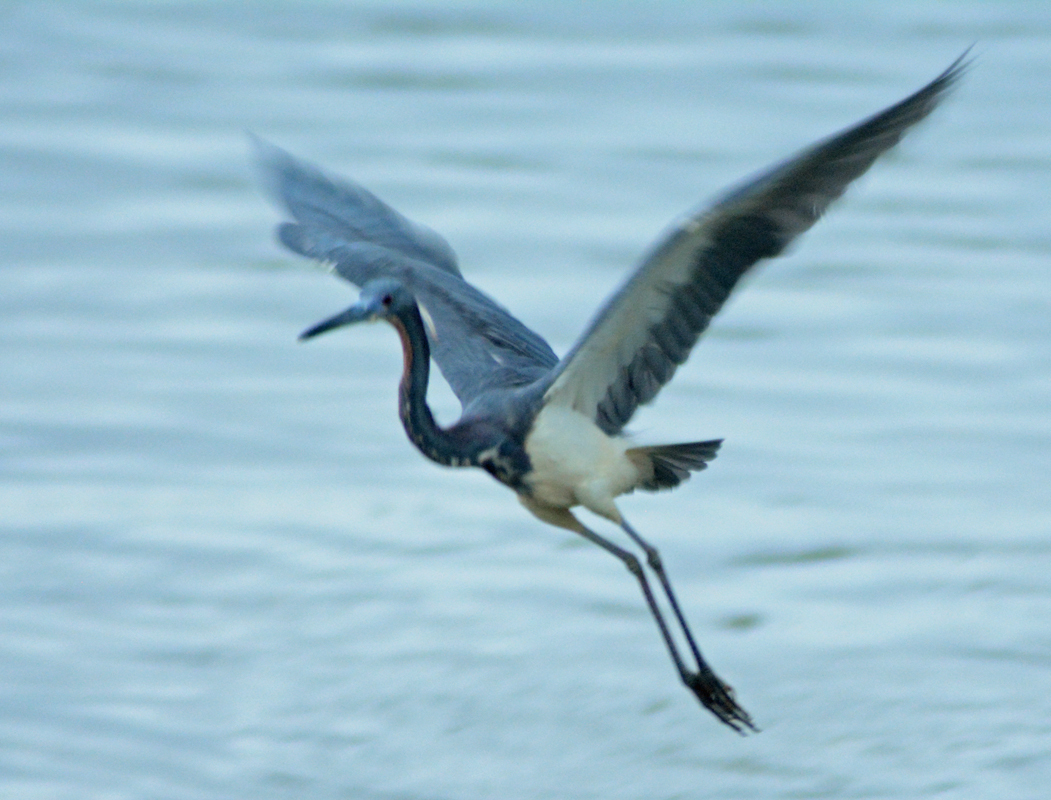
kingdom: Animalia
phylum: Chordata
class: Aves
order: Pelecaniformes
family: Ardeidae
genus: Egretta
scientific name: Egretta tricolor
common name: Tricolored heron
